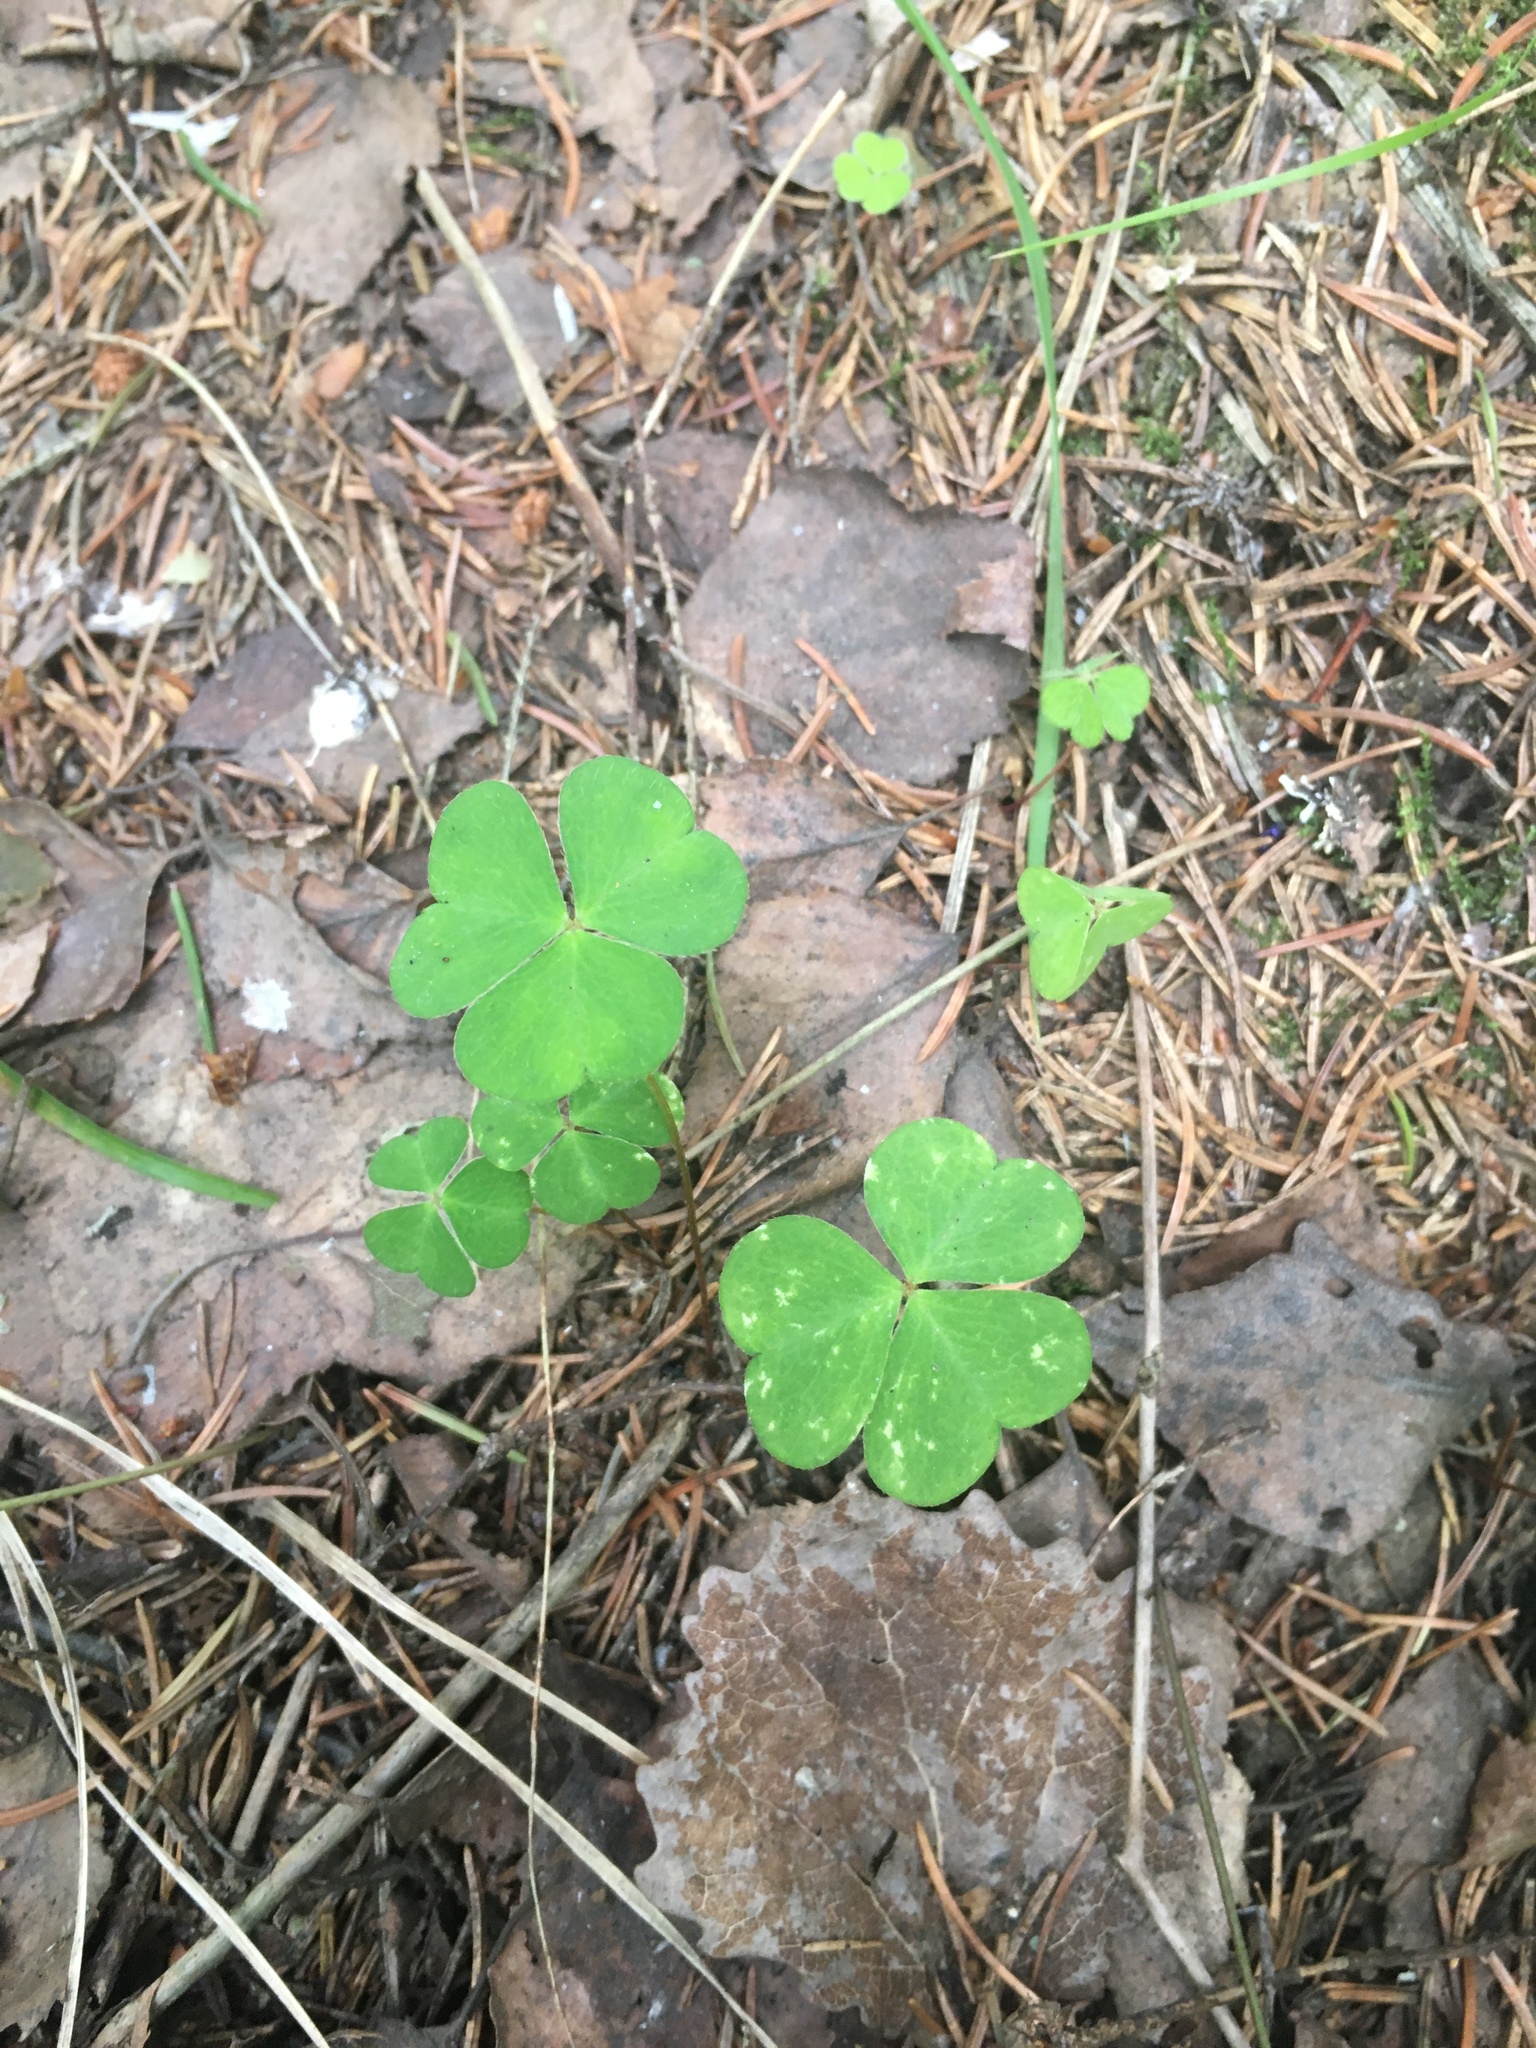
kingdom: Plantae
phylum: Tracheophyta
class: Magnoliopsida
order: Oxalidales
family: Oxalidaceae
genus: Oxalis
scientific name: Oxalis acetosella
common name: Wood-sorrel
